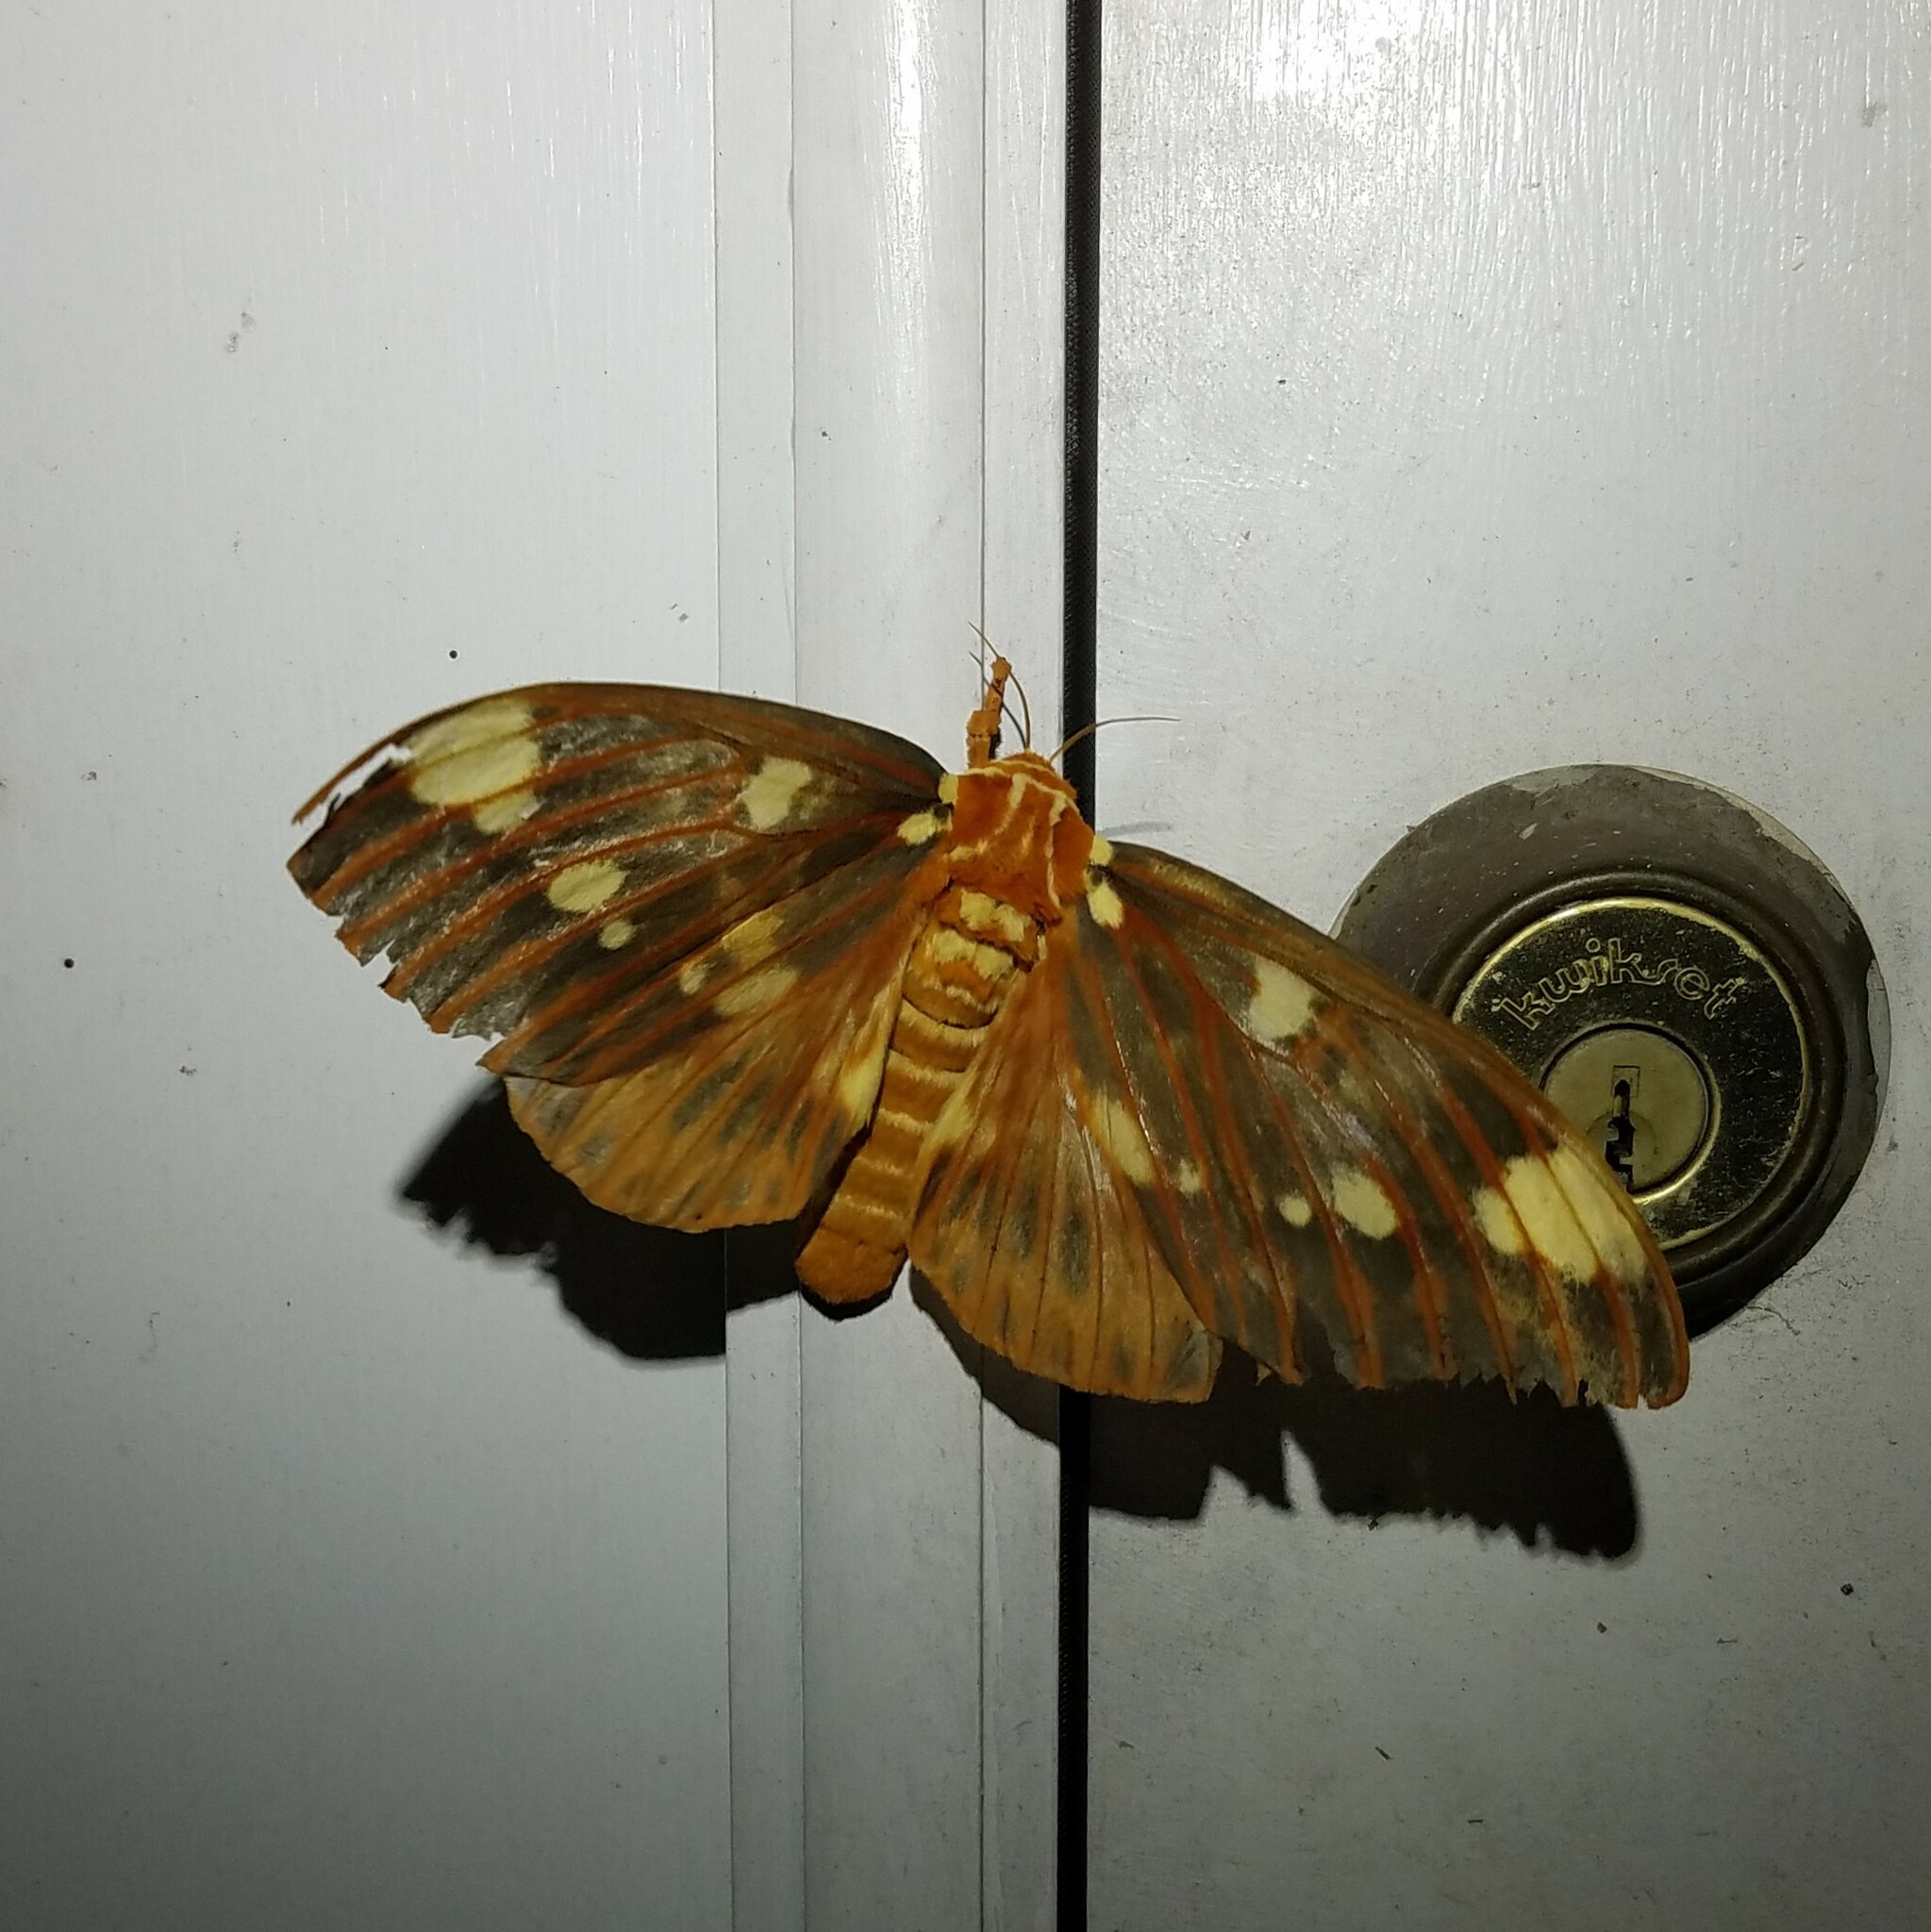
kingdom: Animalia
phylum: Arthropoda
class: Insecta
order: Lepidoptera
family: Saturniidae
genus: Citheronia
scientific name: Citheronia regalis
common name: Hickory horned devil
